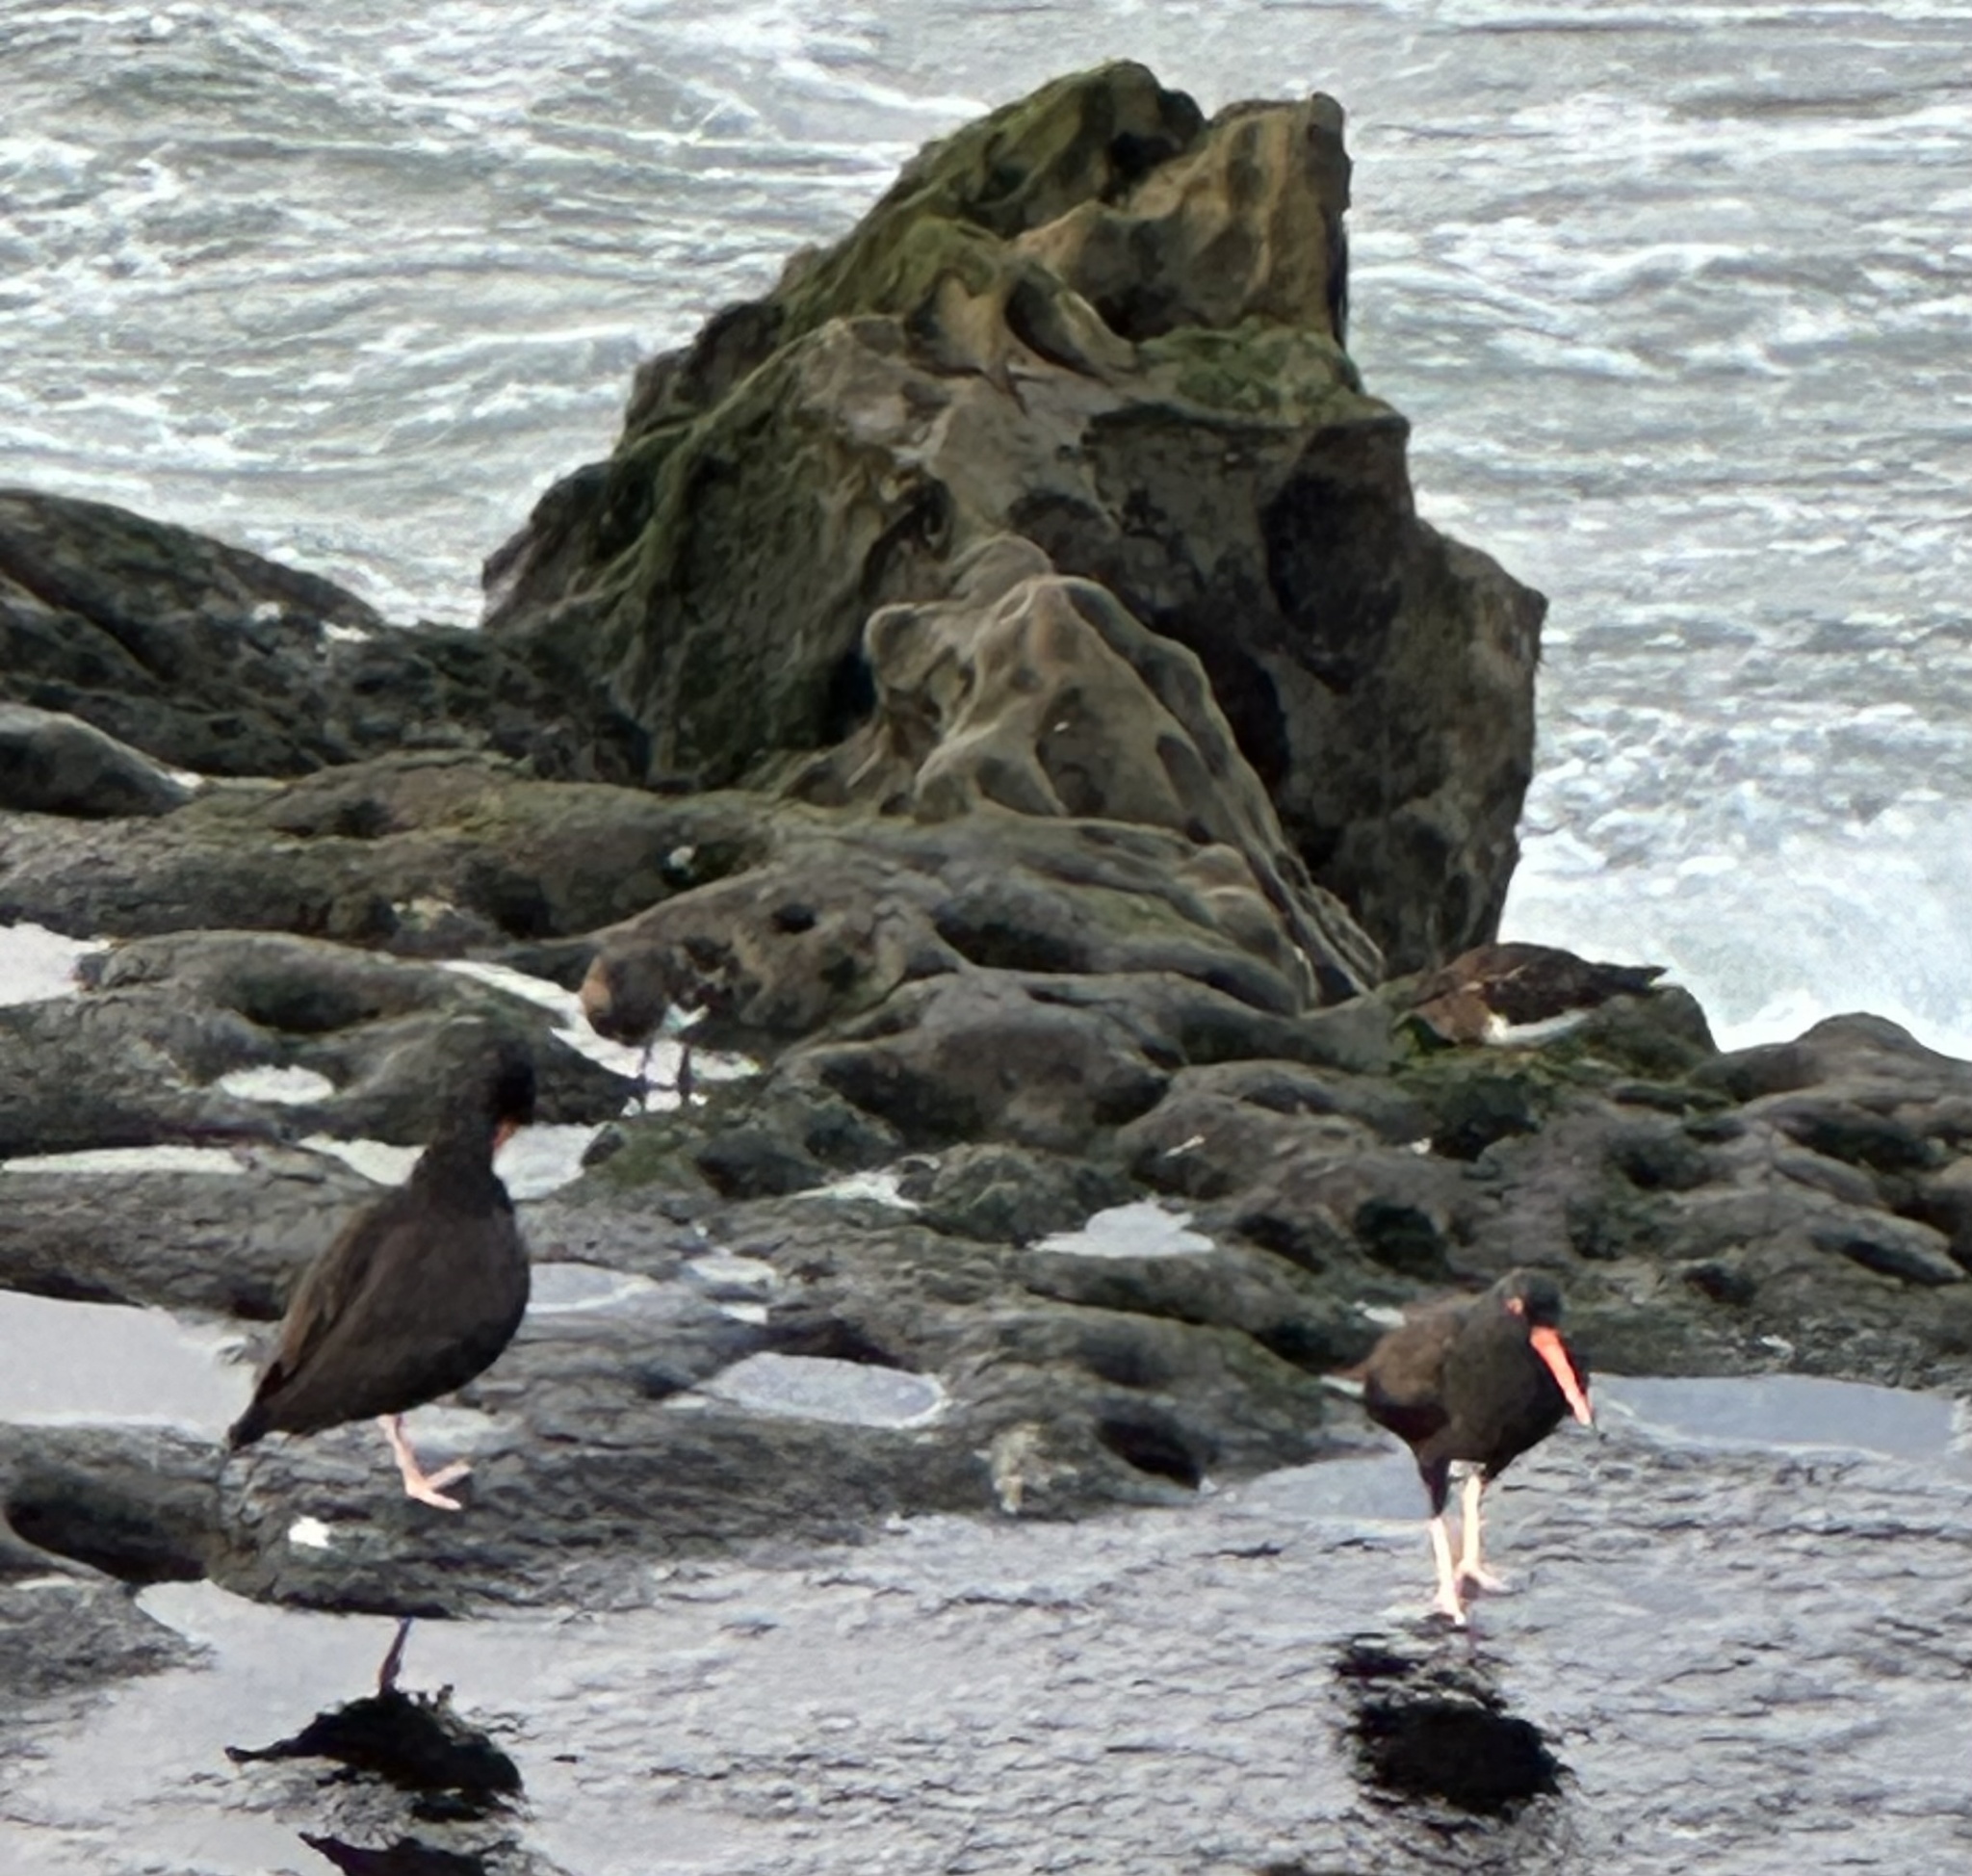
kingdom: Animalia
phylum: Chordata
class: Aves
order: Charadriiformes
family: Haematopodidae
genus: Haematopus
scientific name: Haematopus bachmani
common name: Black oystercatcher
